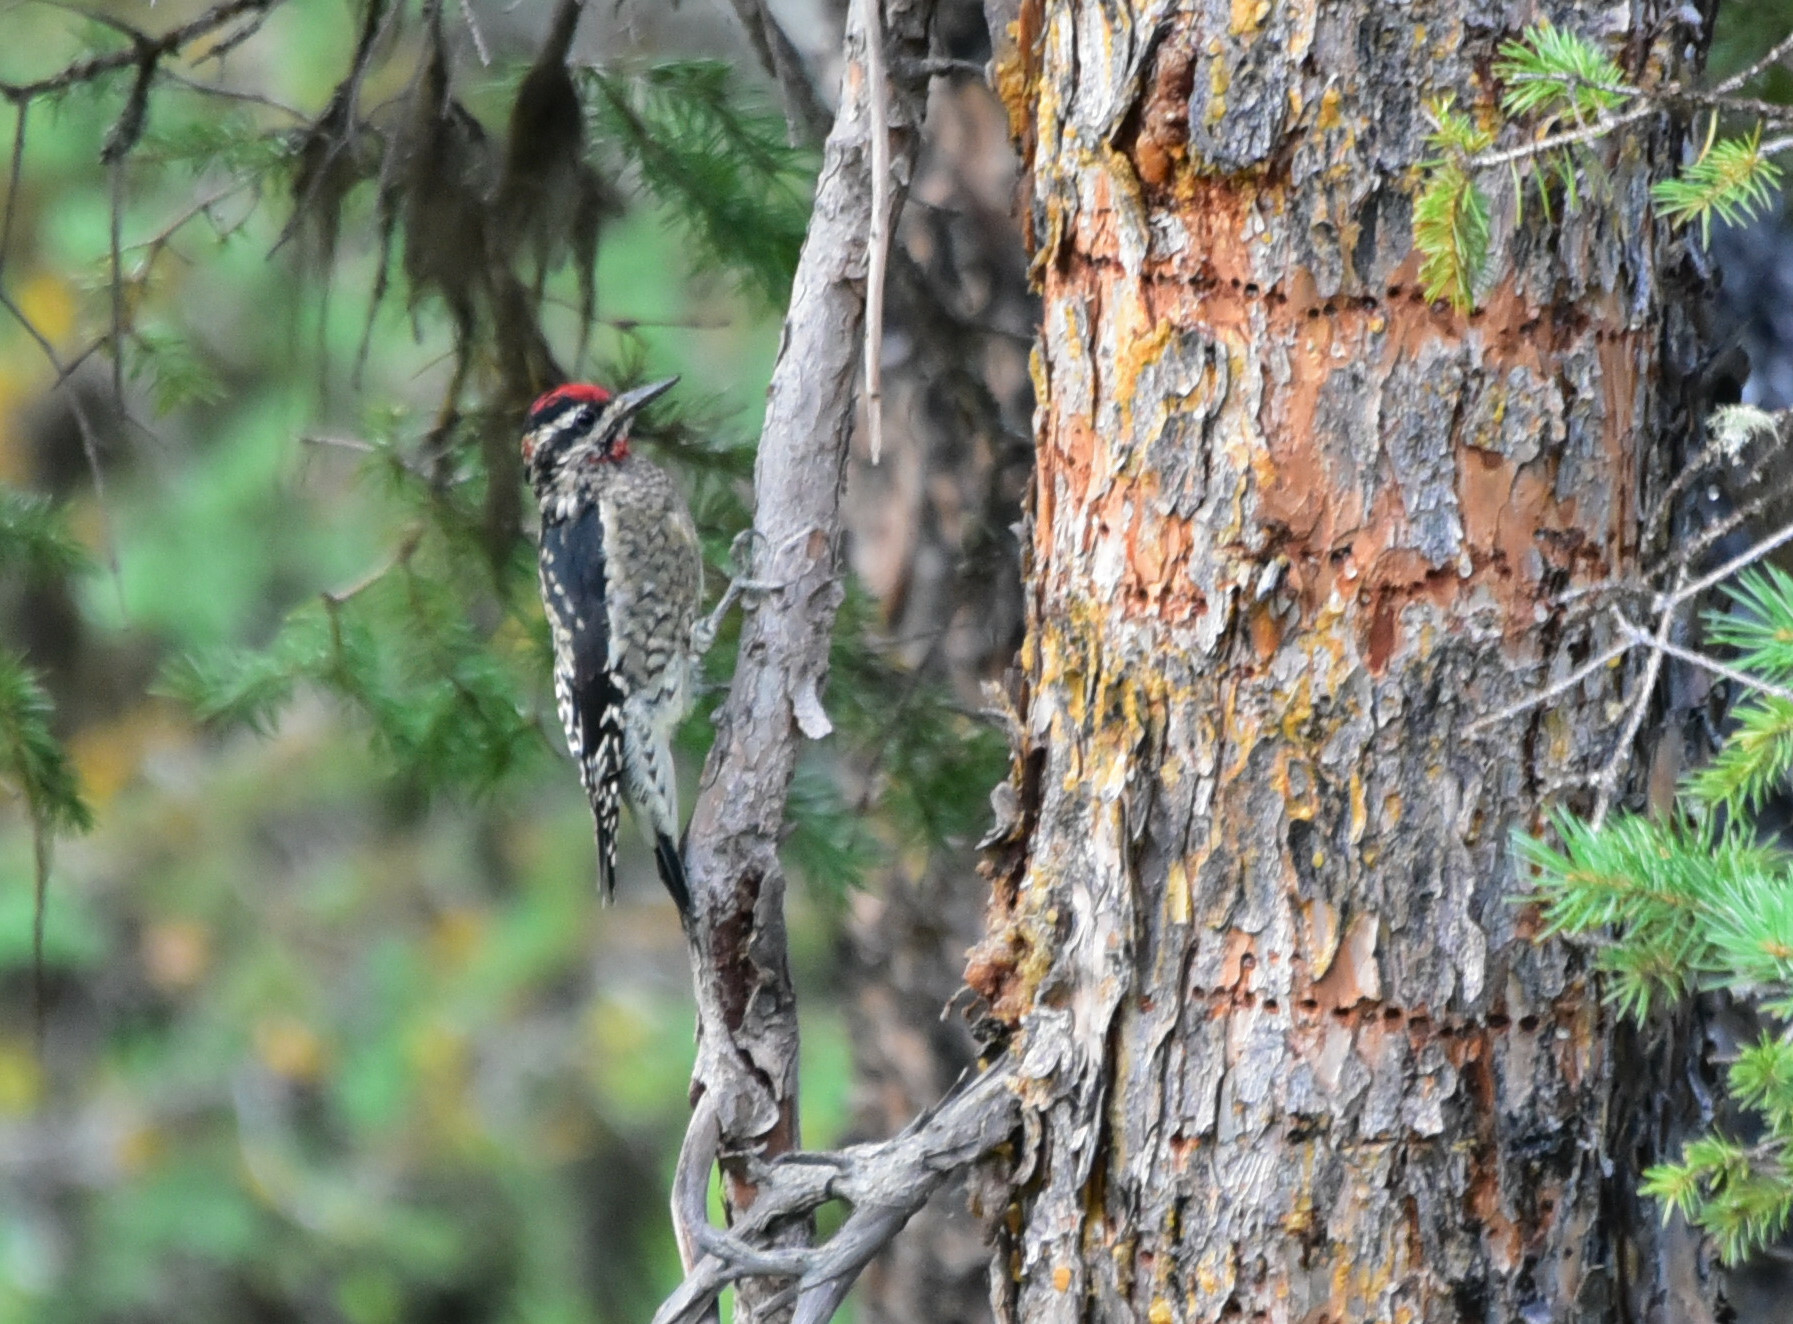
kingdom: Animalia
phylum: Chordata
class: Aves
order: Piciformes
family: Picidae
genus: Sphyrapicus
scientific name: Sphyrapicus nuchalis
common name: Red-naped sapsucker
